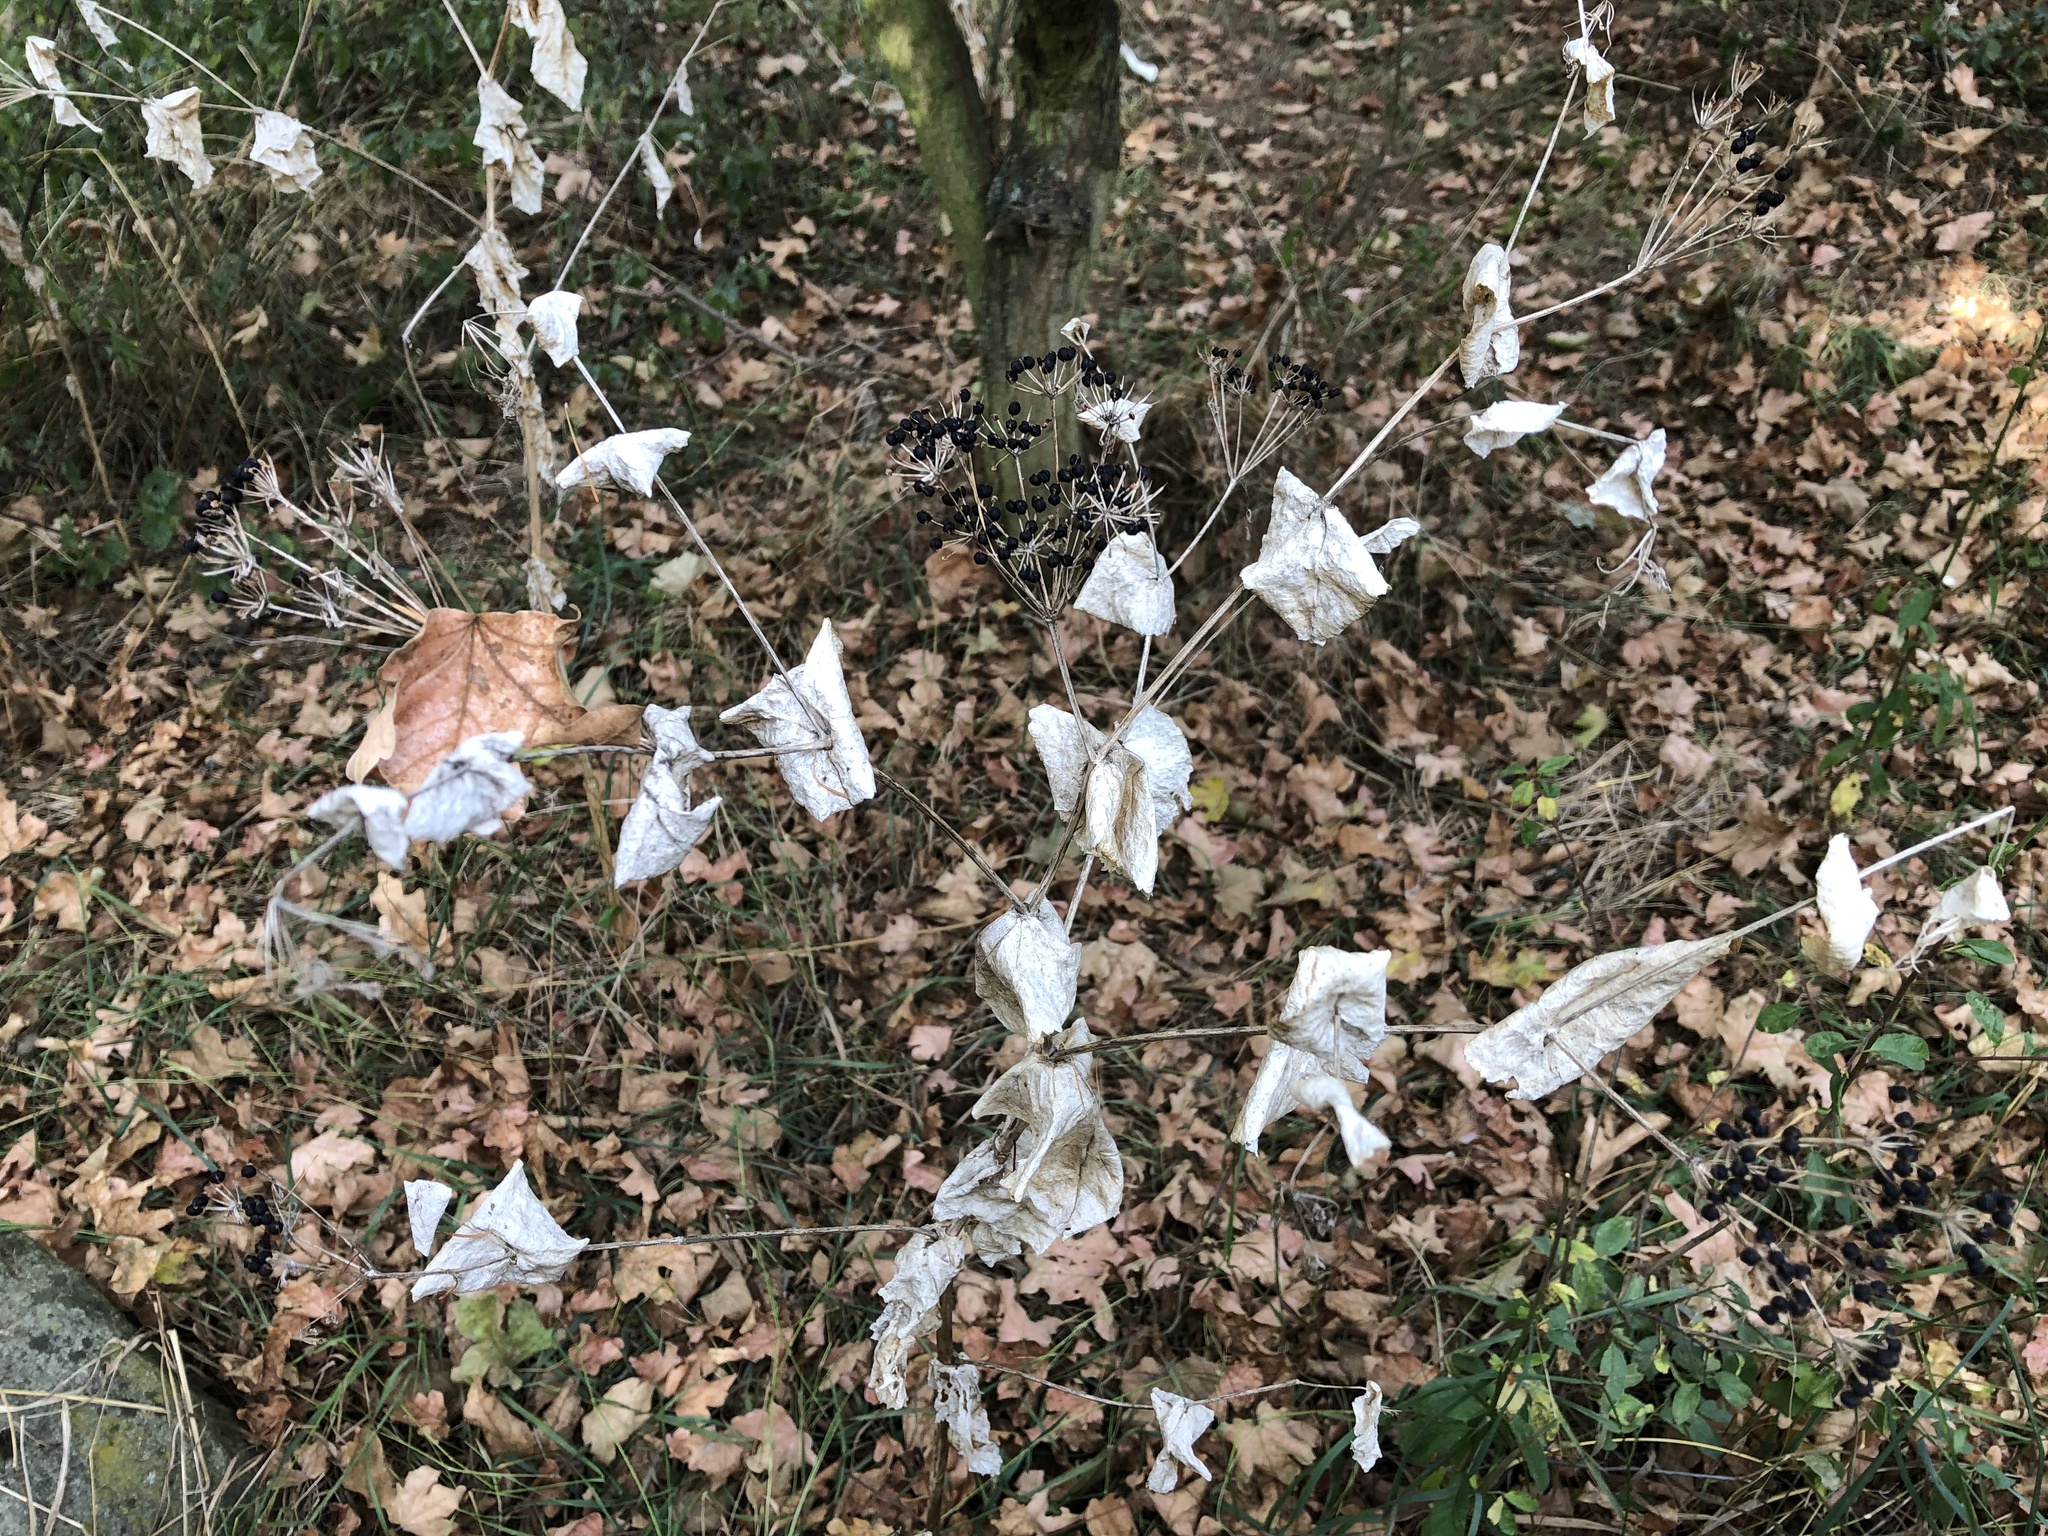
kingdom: Plantae
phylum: Tracheophyta
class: Magnoliopsida
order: Apiales
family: Apiaceae
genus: Smyrnium
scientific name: Smyrnium perfoliatum
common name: Perfoliate alexanders
